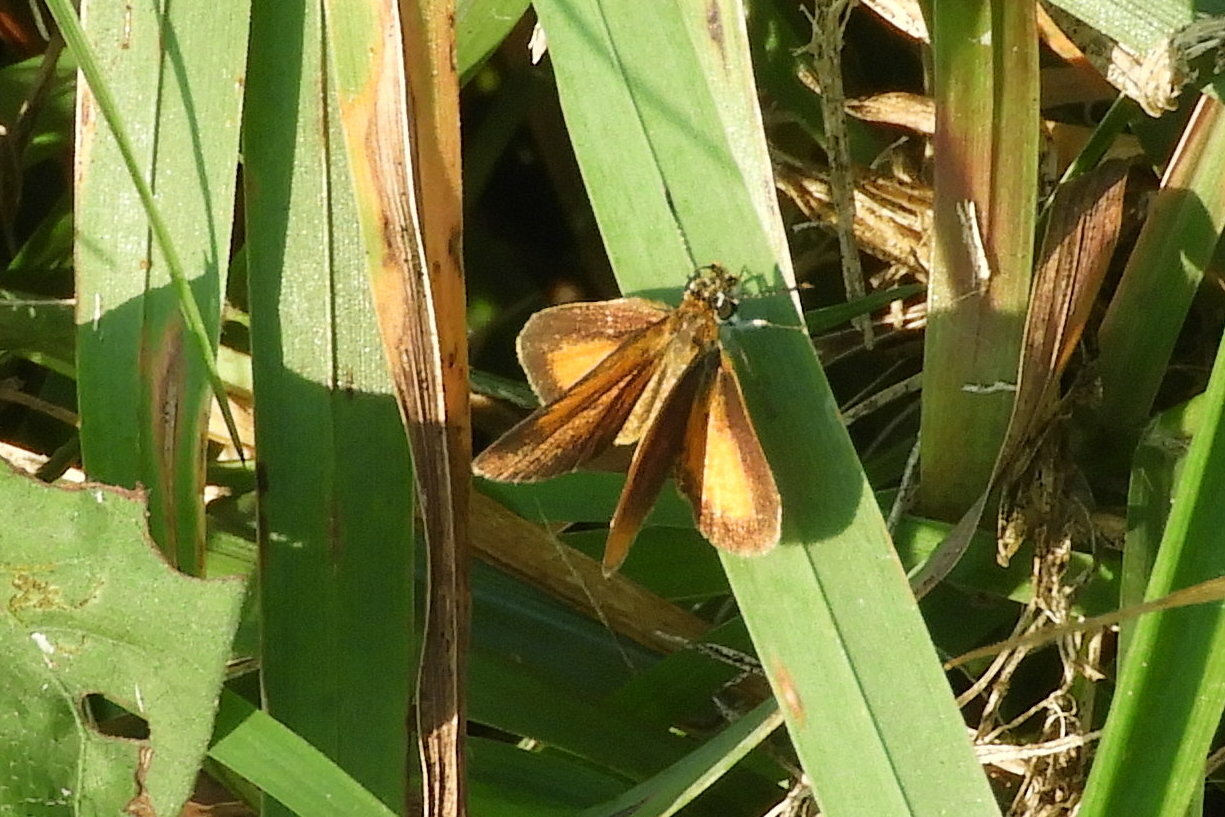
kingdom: Animalia
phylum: Arthropoda
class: Insecta
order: Lepidoptera
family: Hesperiidae
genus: Ancyloxypha
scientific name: Ancyloxypha numitor
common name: Least skipper
